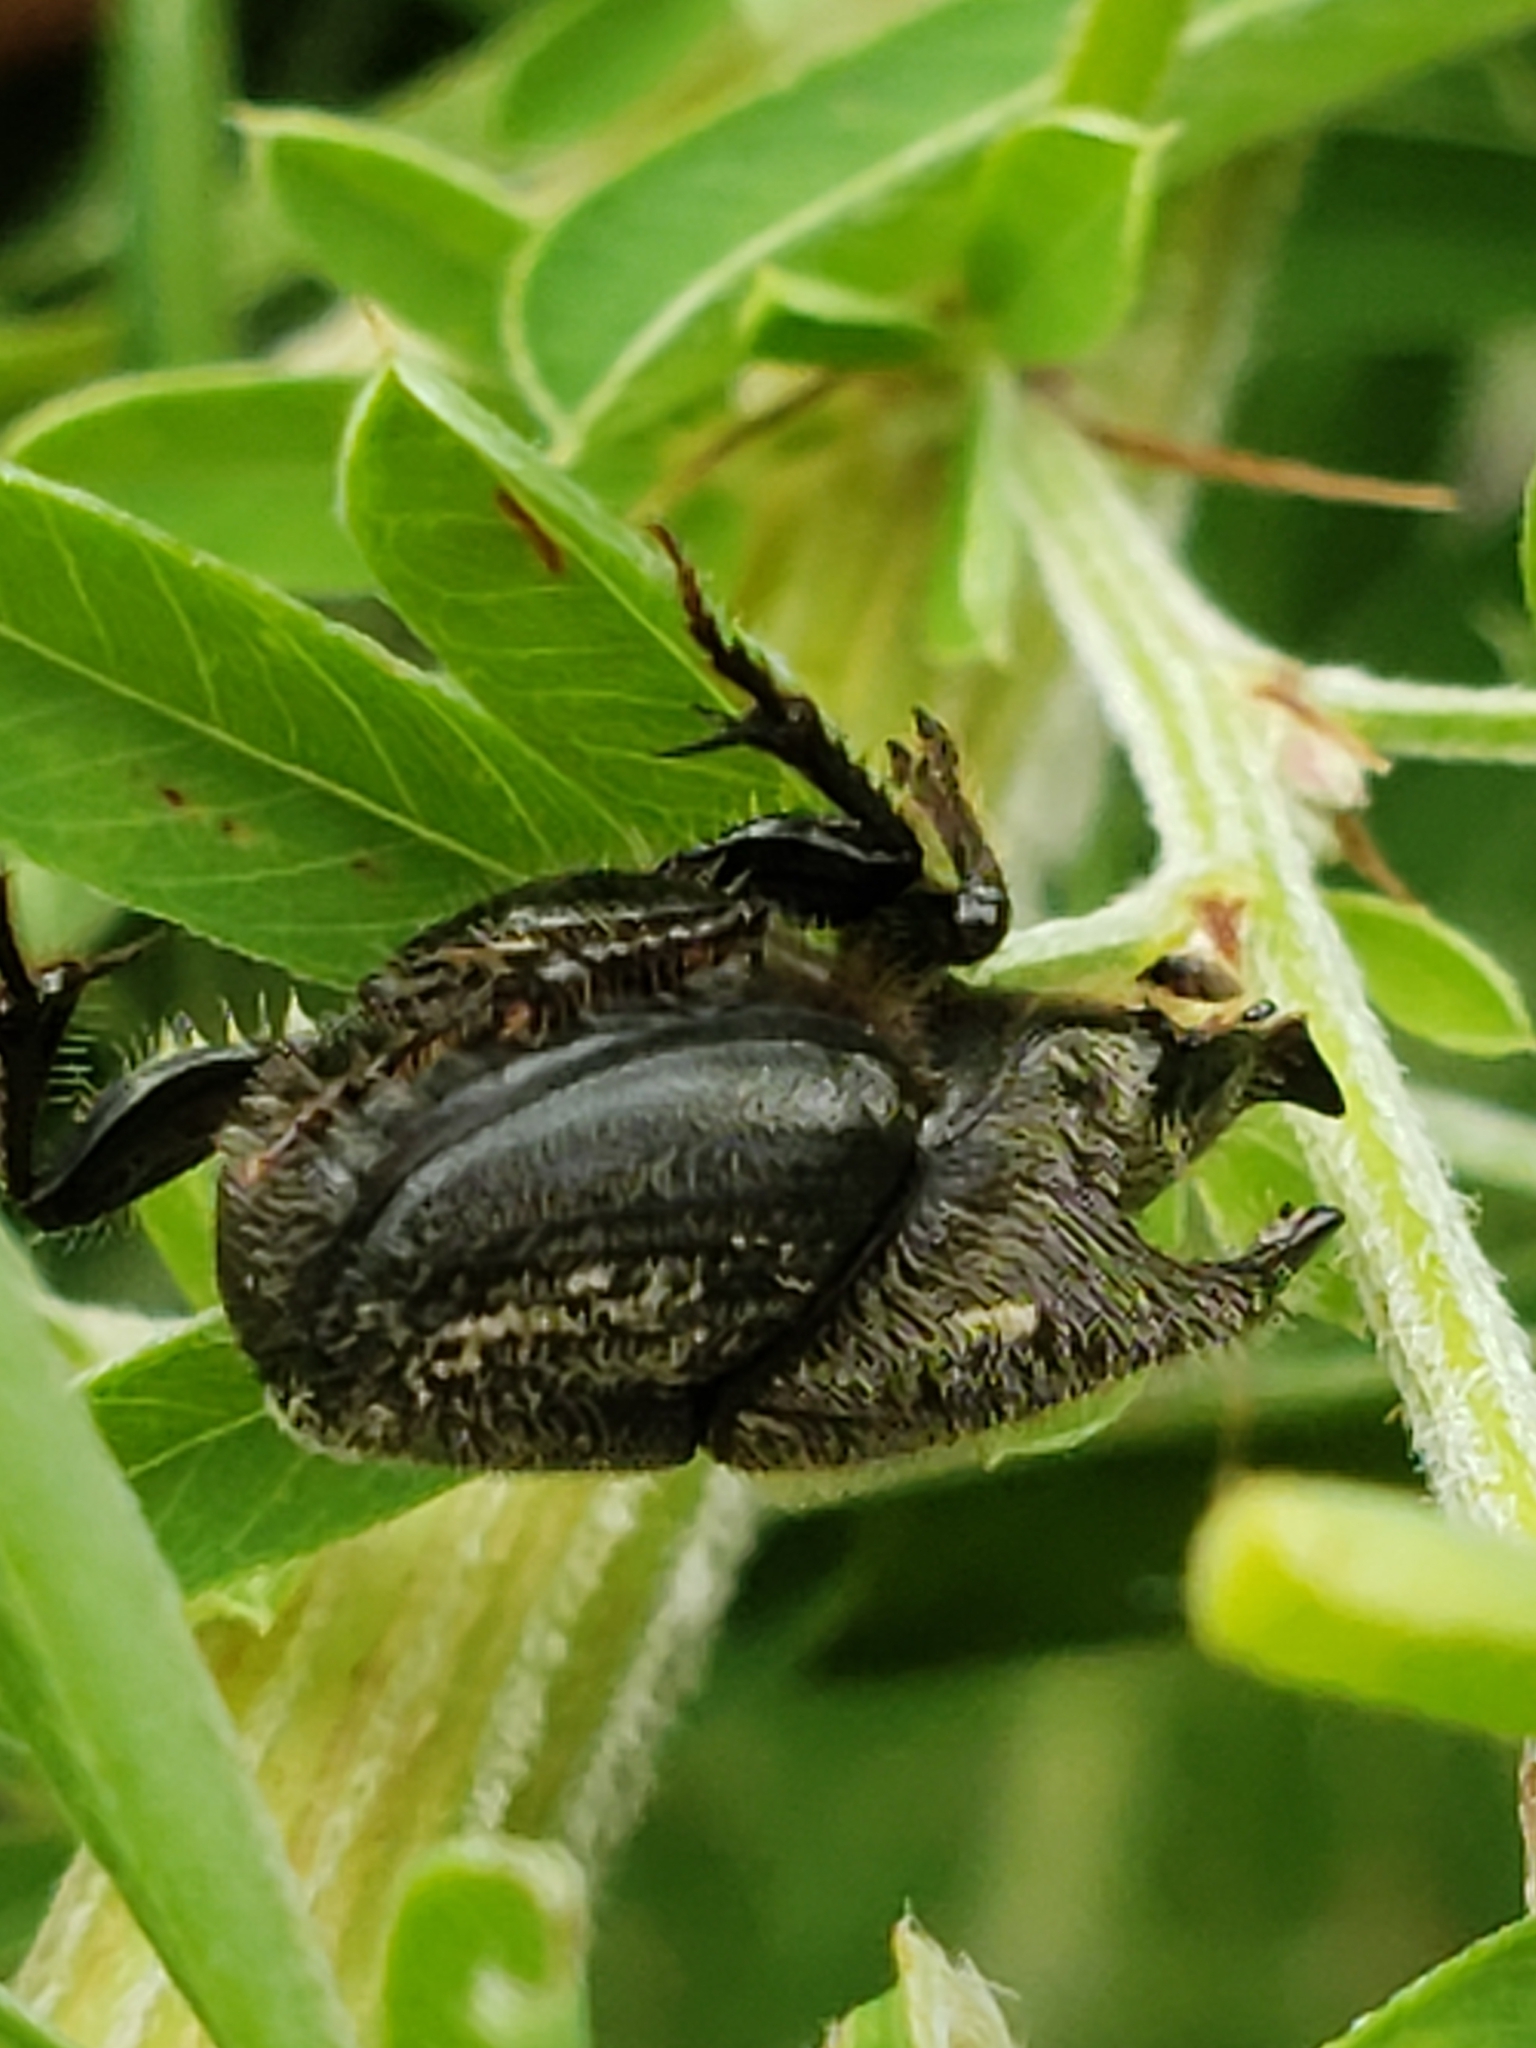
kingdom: Animalia
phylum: Arthropoda
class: Insecta
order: Coleoptera
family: Scarabaeidae
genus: Onthophagus
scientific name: Onthophagus hecate
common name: Scooped scarab
